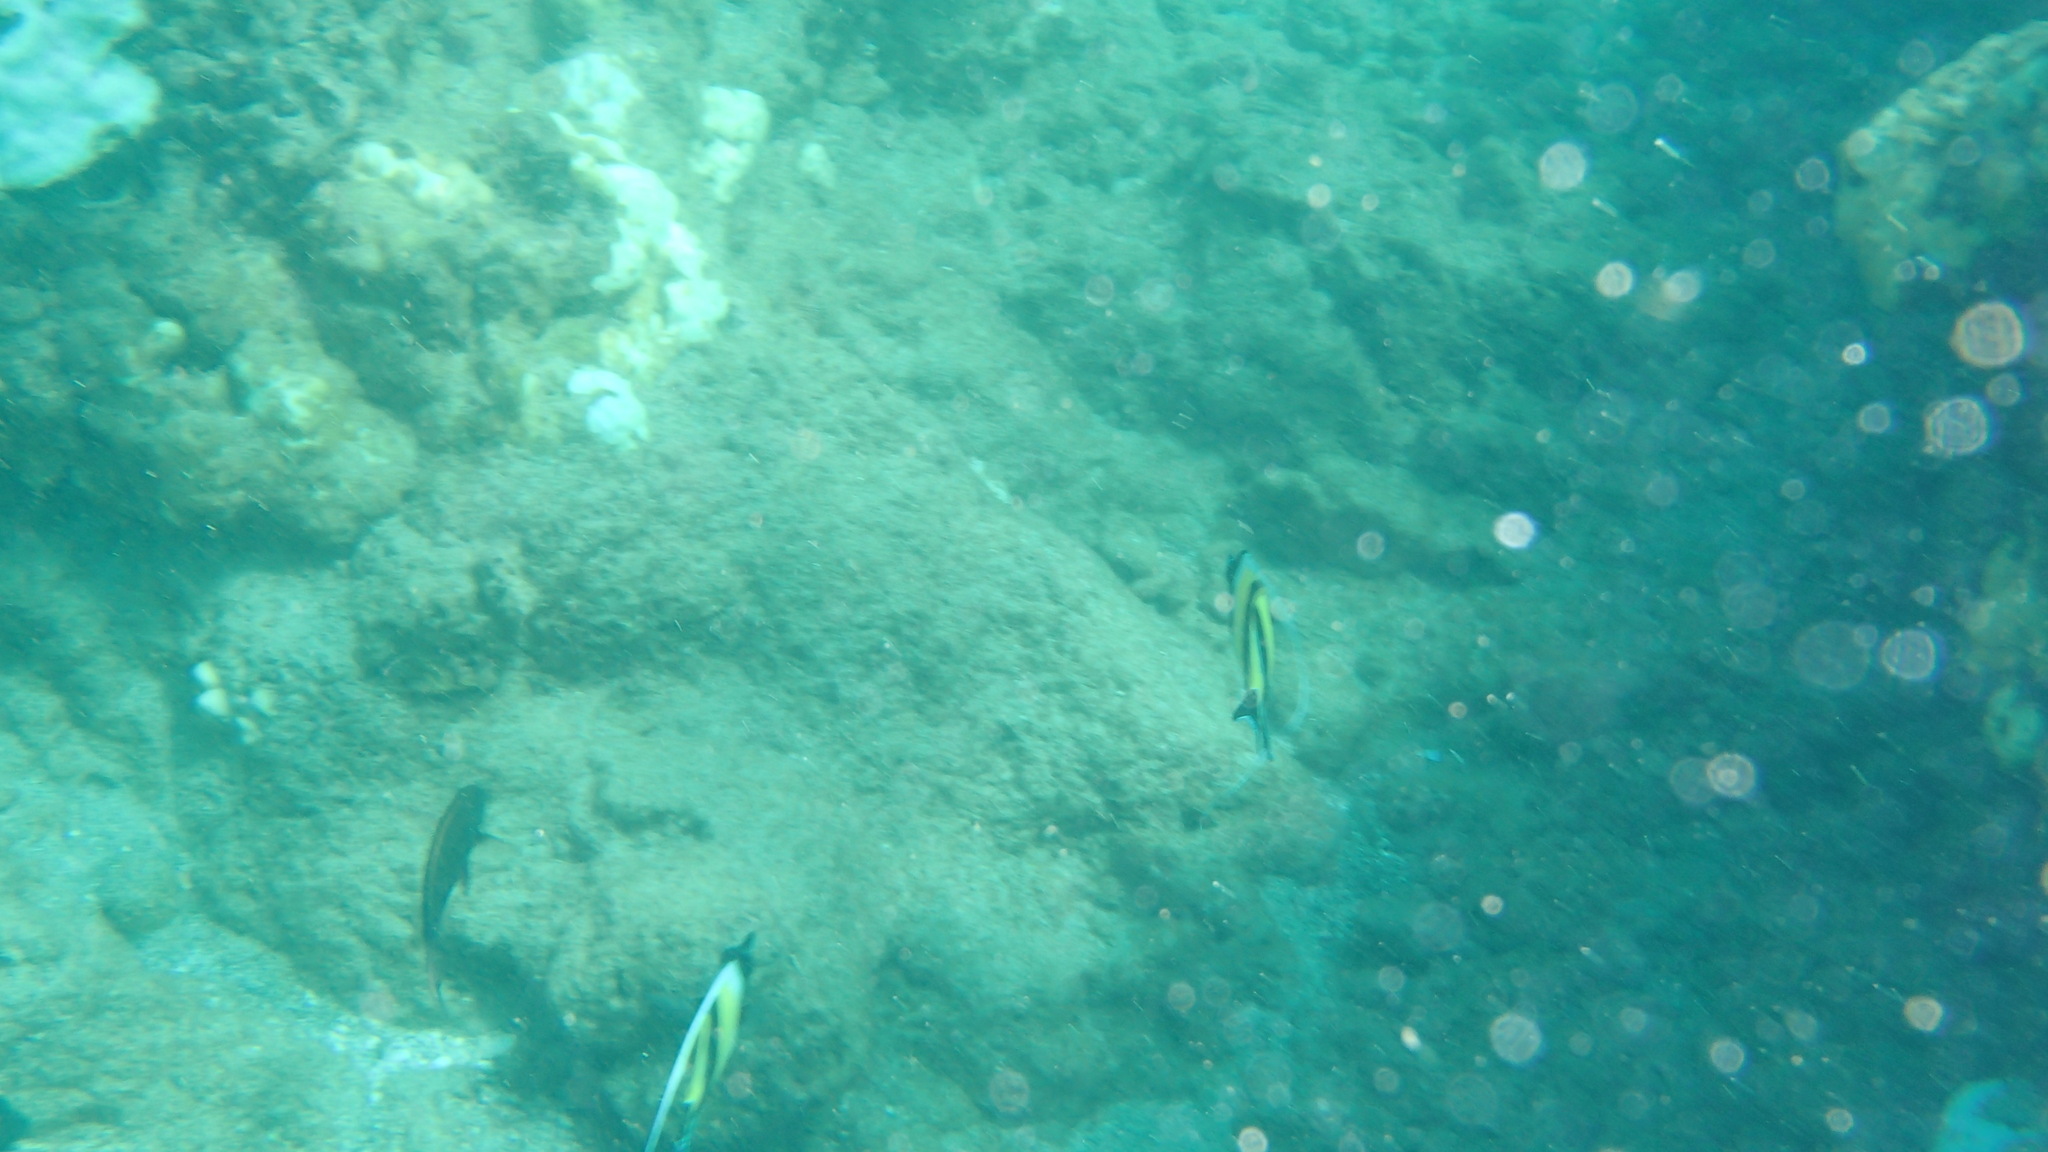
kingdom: Animalia
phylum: Chordata
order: Perciformes
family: Zanclidae
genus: Zanclus
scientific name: Zanclus cornutus
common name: Moorish idol
